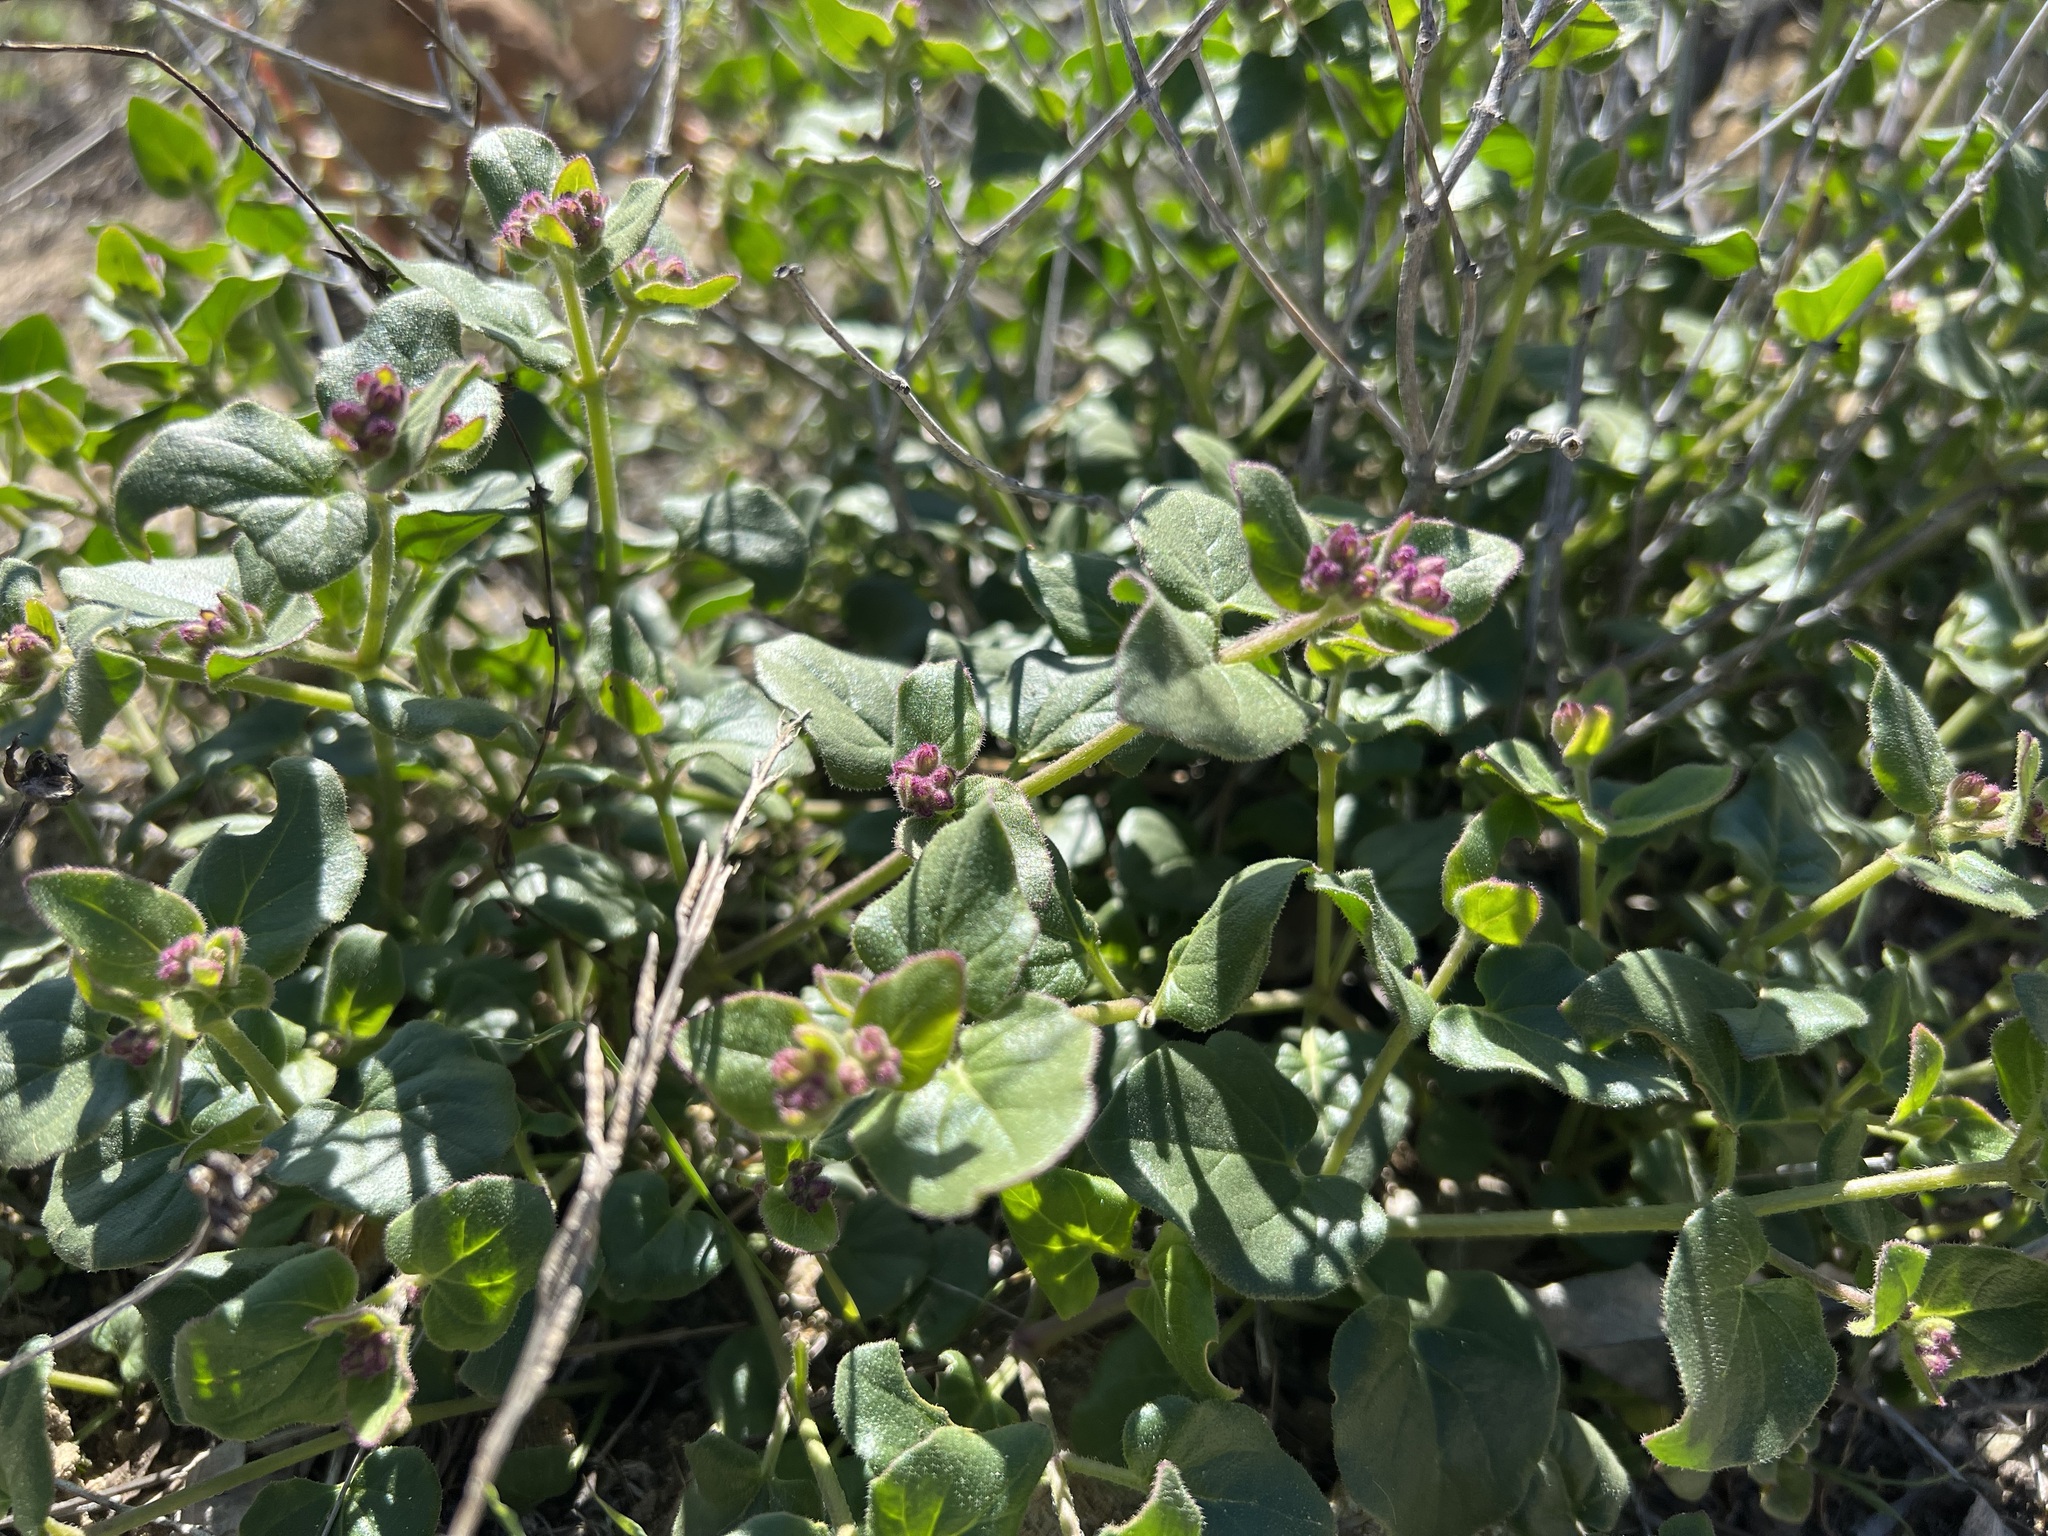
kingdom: Plantae
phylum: Tracheophyta
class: Magnoliopsida
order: Caryophyllales
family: Nyctaginaceae
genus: Mirabilis
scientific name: Mirabilis laevis
